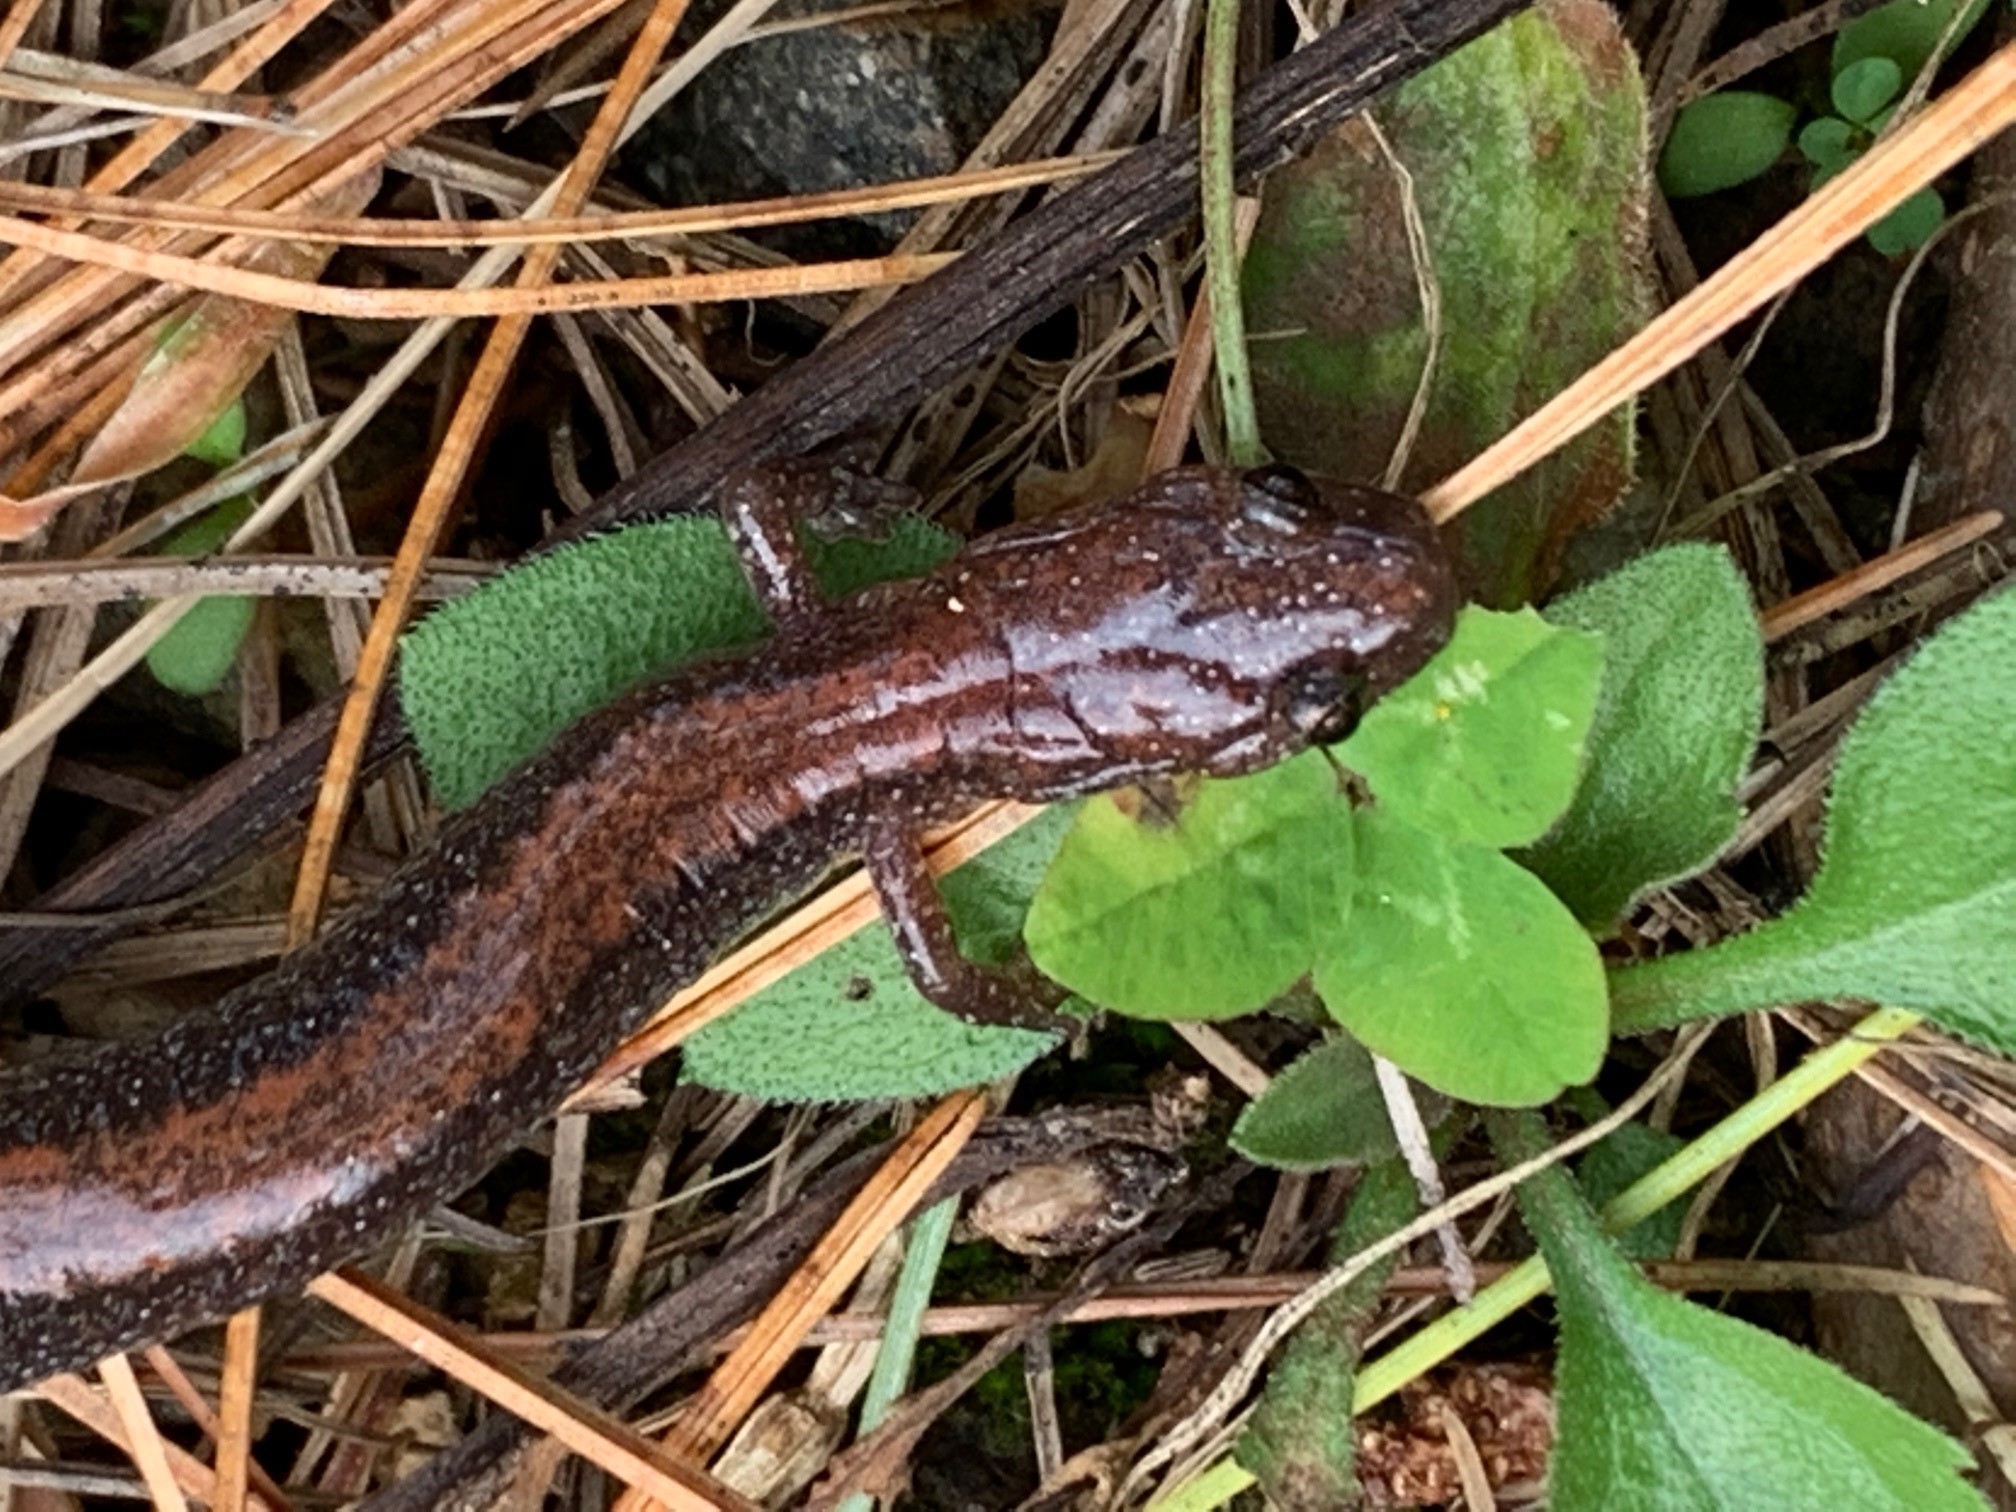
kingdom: Animalia
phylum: Chordata
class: Amphibia
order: Caudata
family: Plethodontidae
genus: Plethodon
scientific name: Plethodon cinereus
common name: Redback salamander
